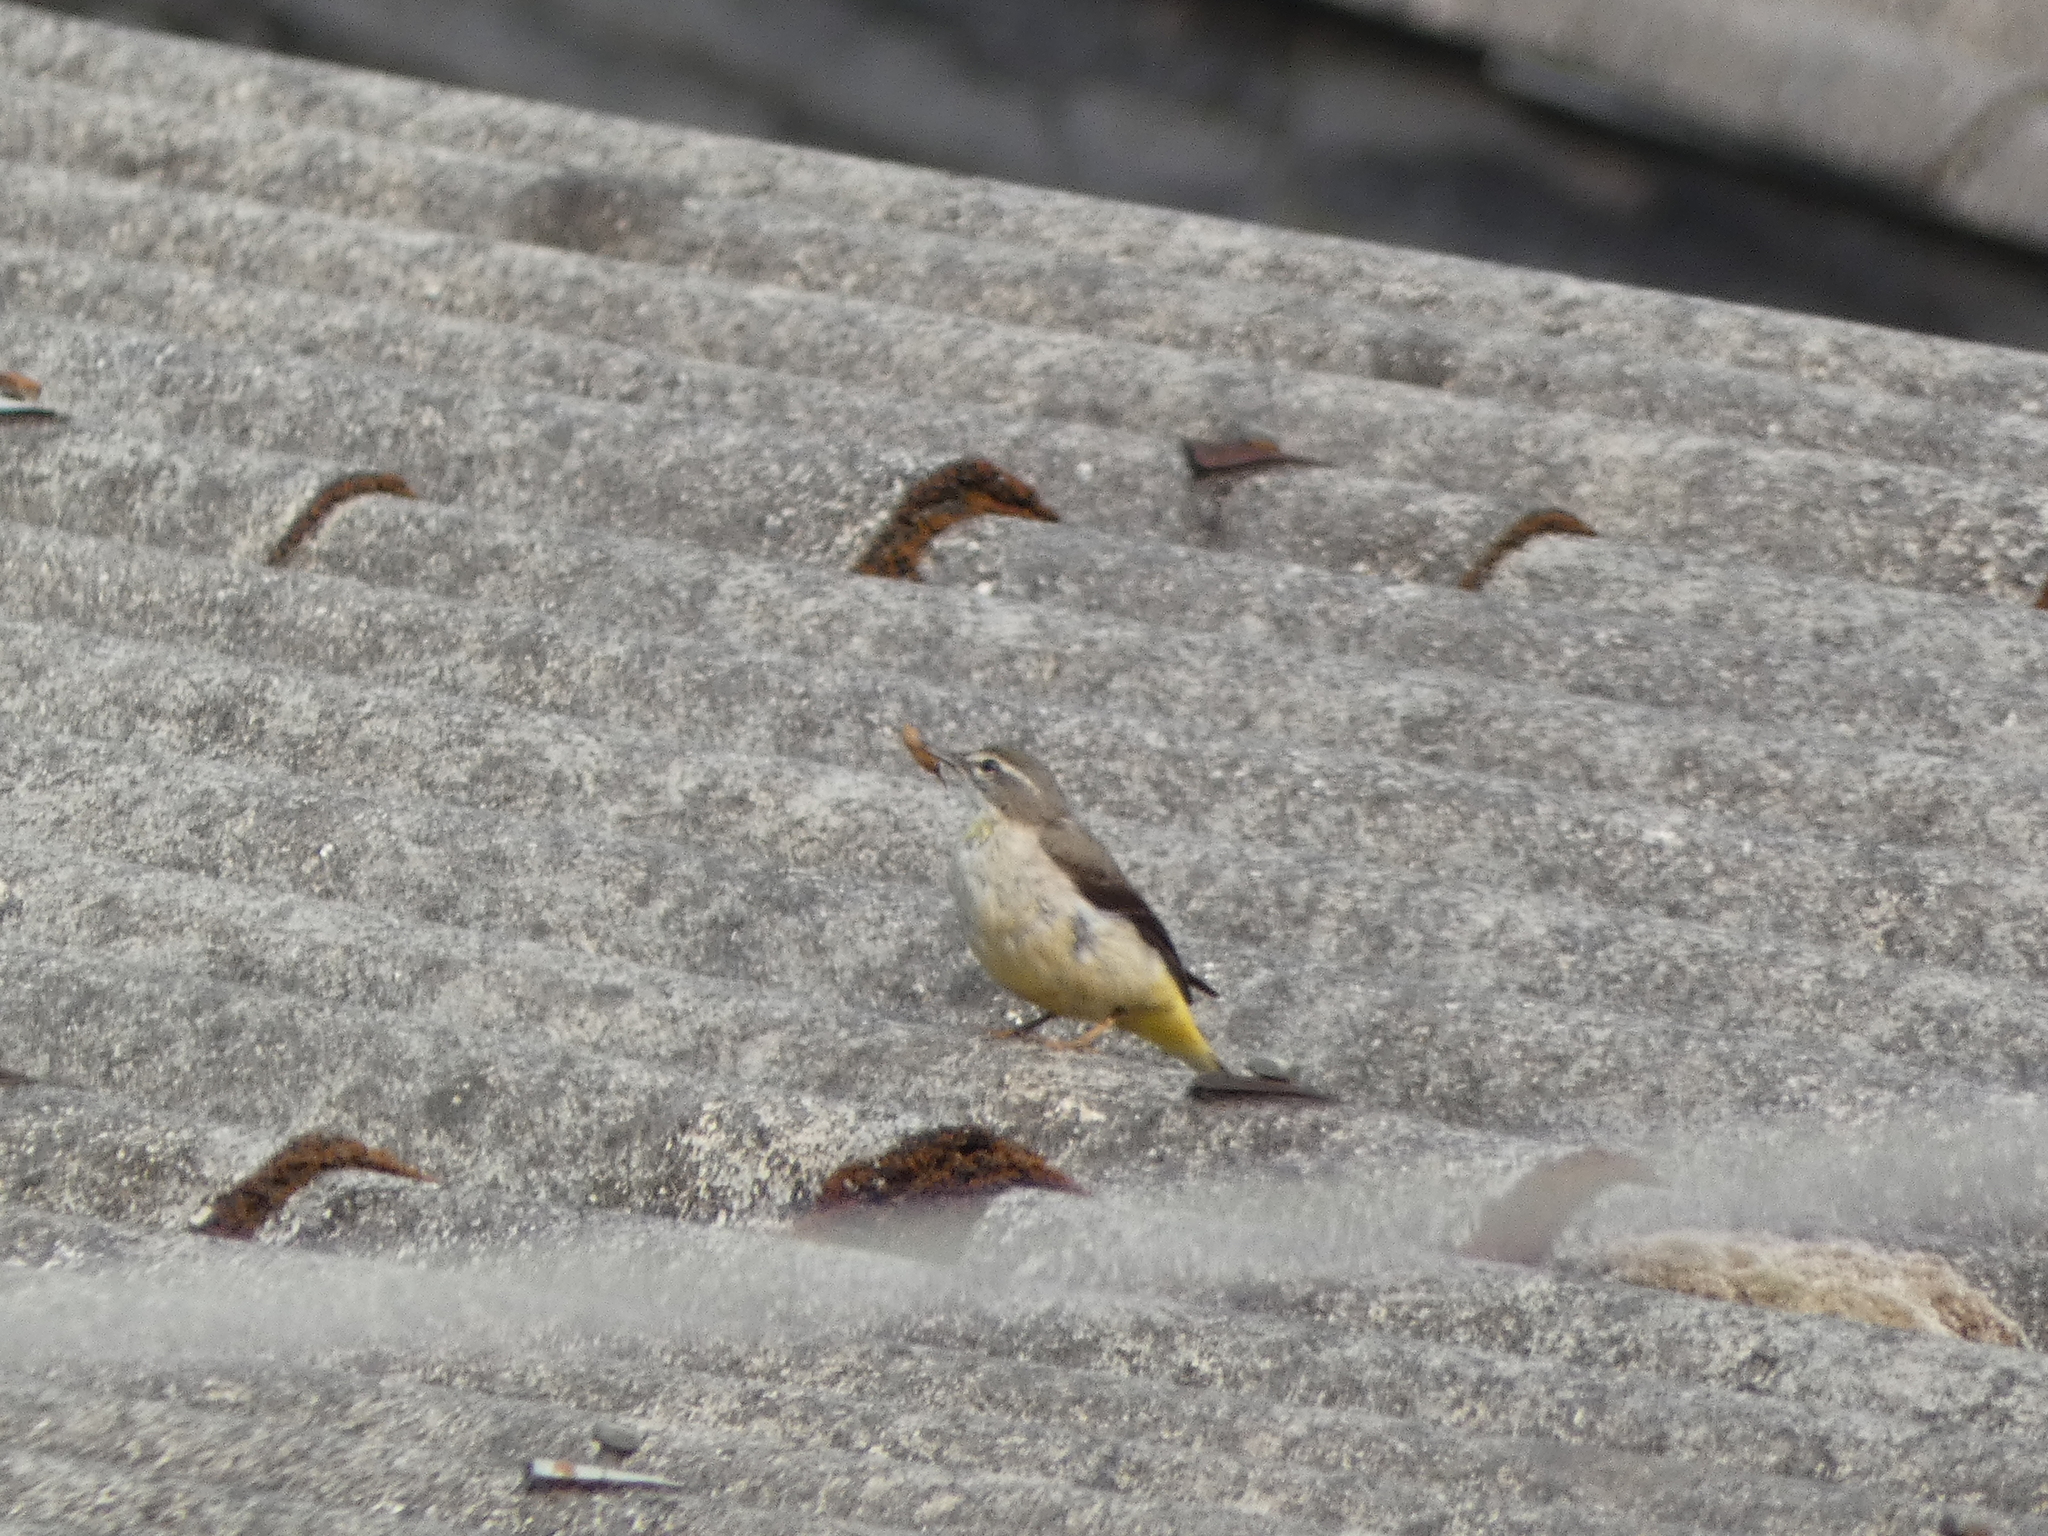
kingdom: Animalia
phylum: Chordata
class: Aves
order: Passeriformes
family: Motacillidae
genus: Motacilla
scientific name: Motacilla cinerea
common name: Grey wagtail
